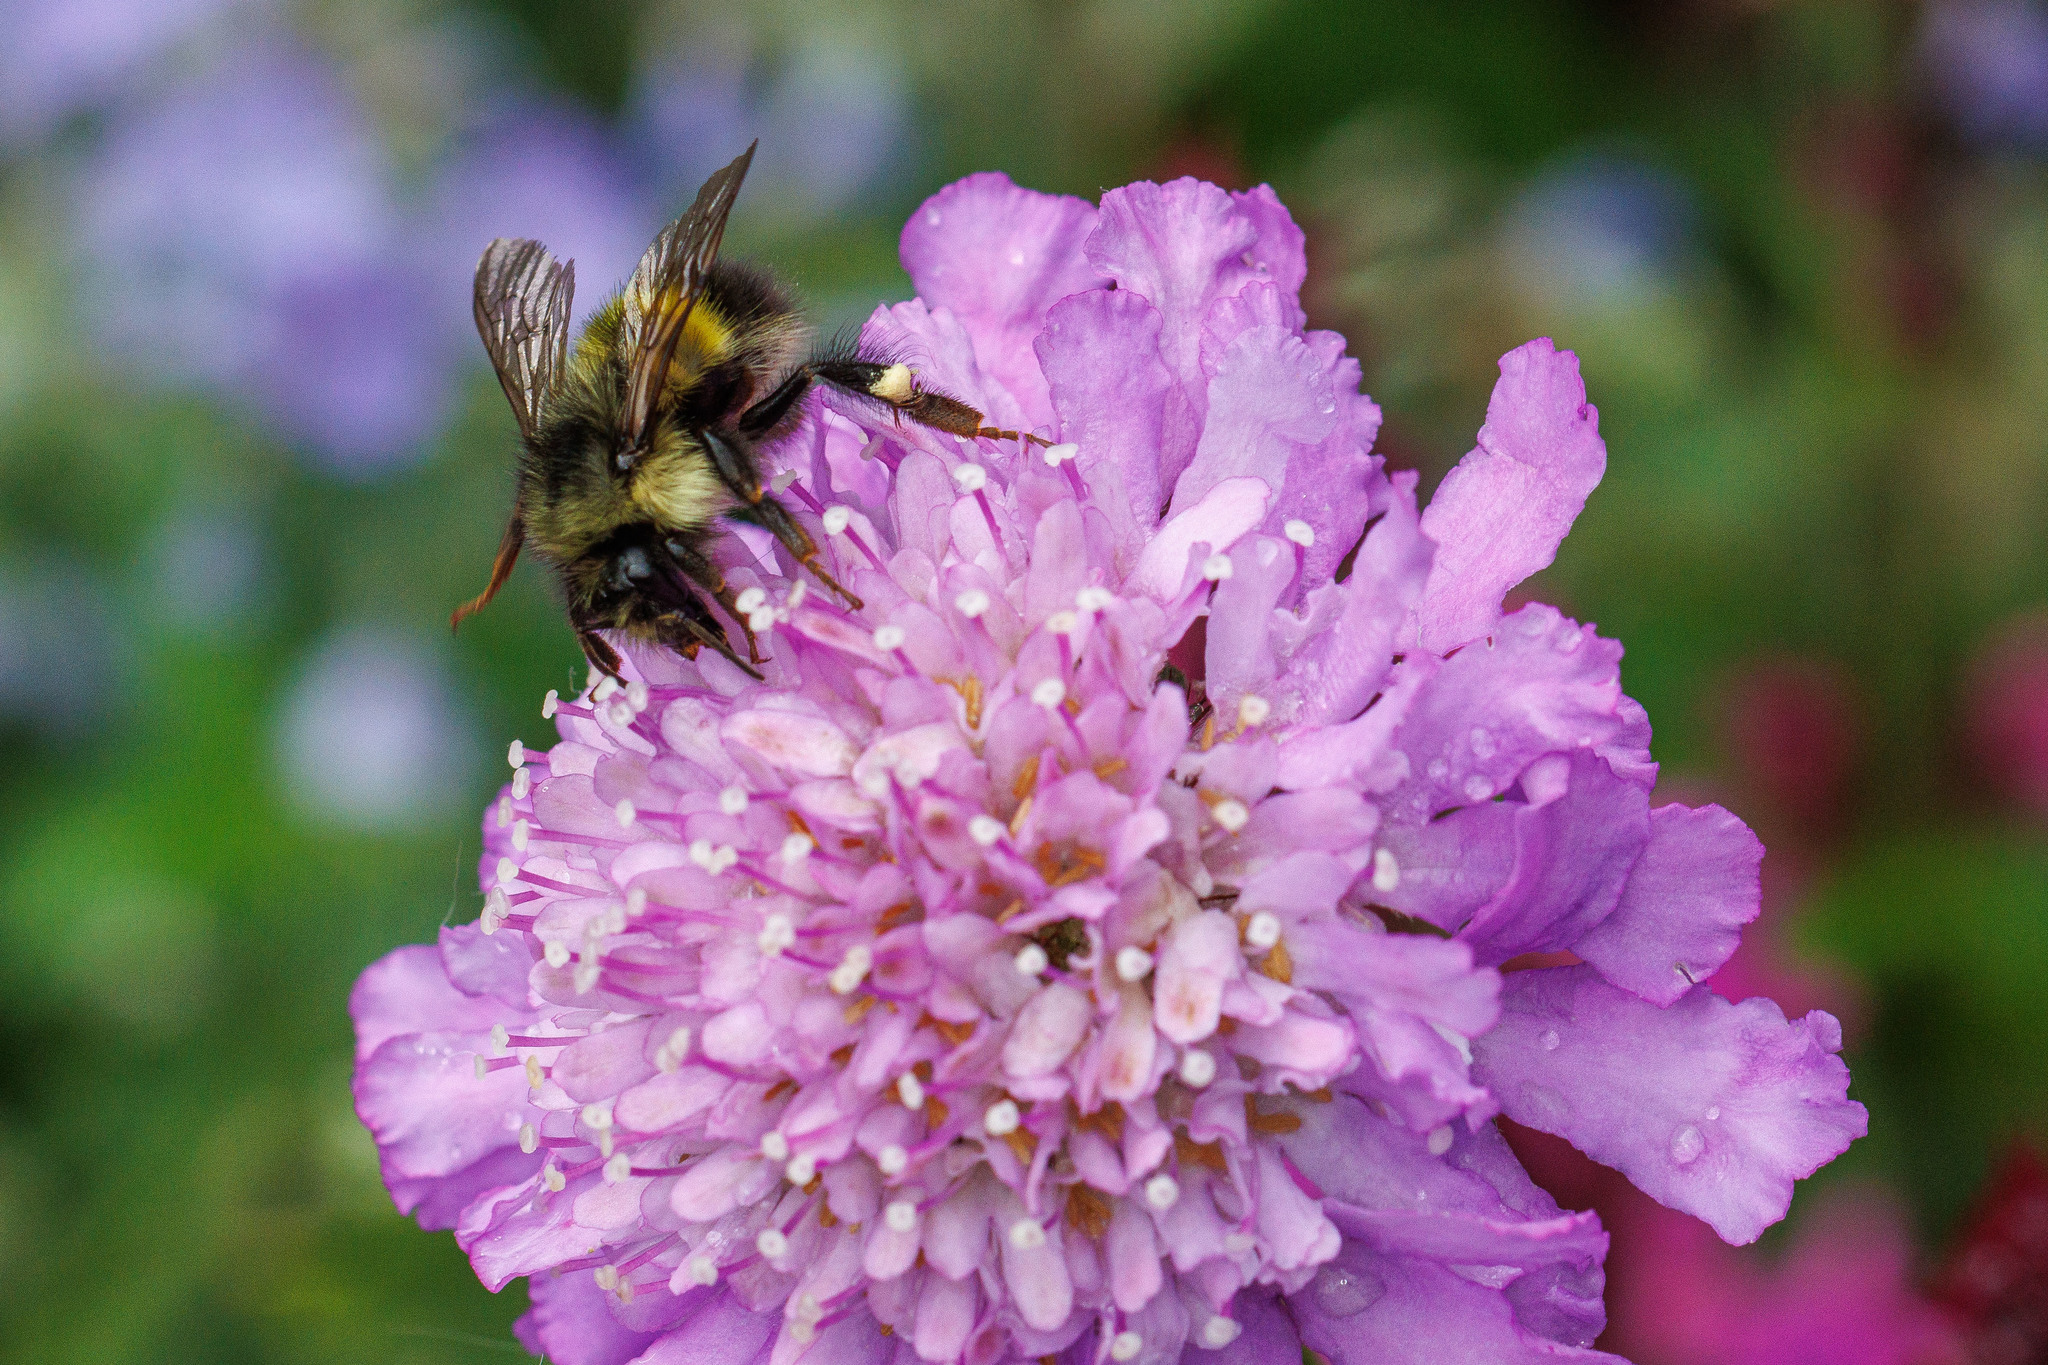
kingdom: Animalia
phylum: Arthropoda
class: Insecta
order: Hymenoptera
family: Apidae
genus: Bombus
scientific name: Bombus flavifrons
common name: Yellow head bumble bee
